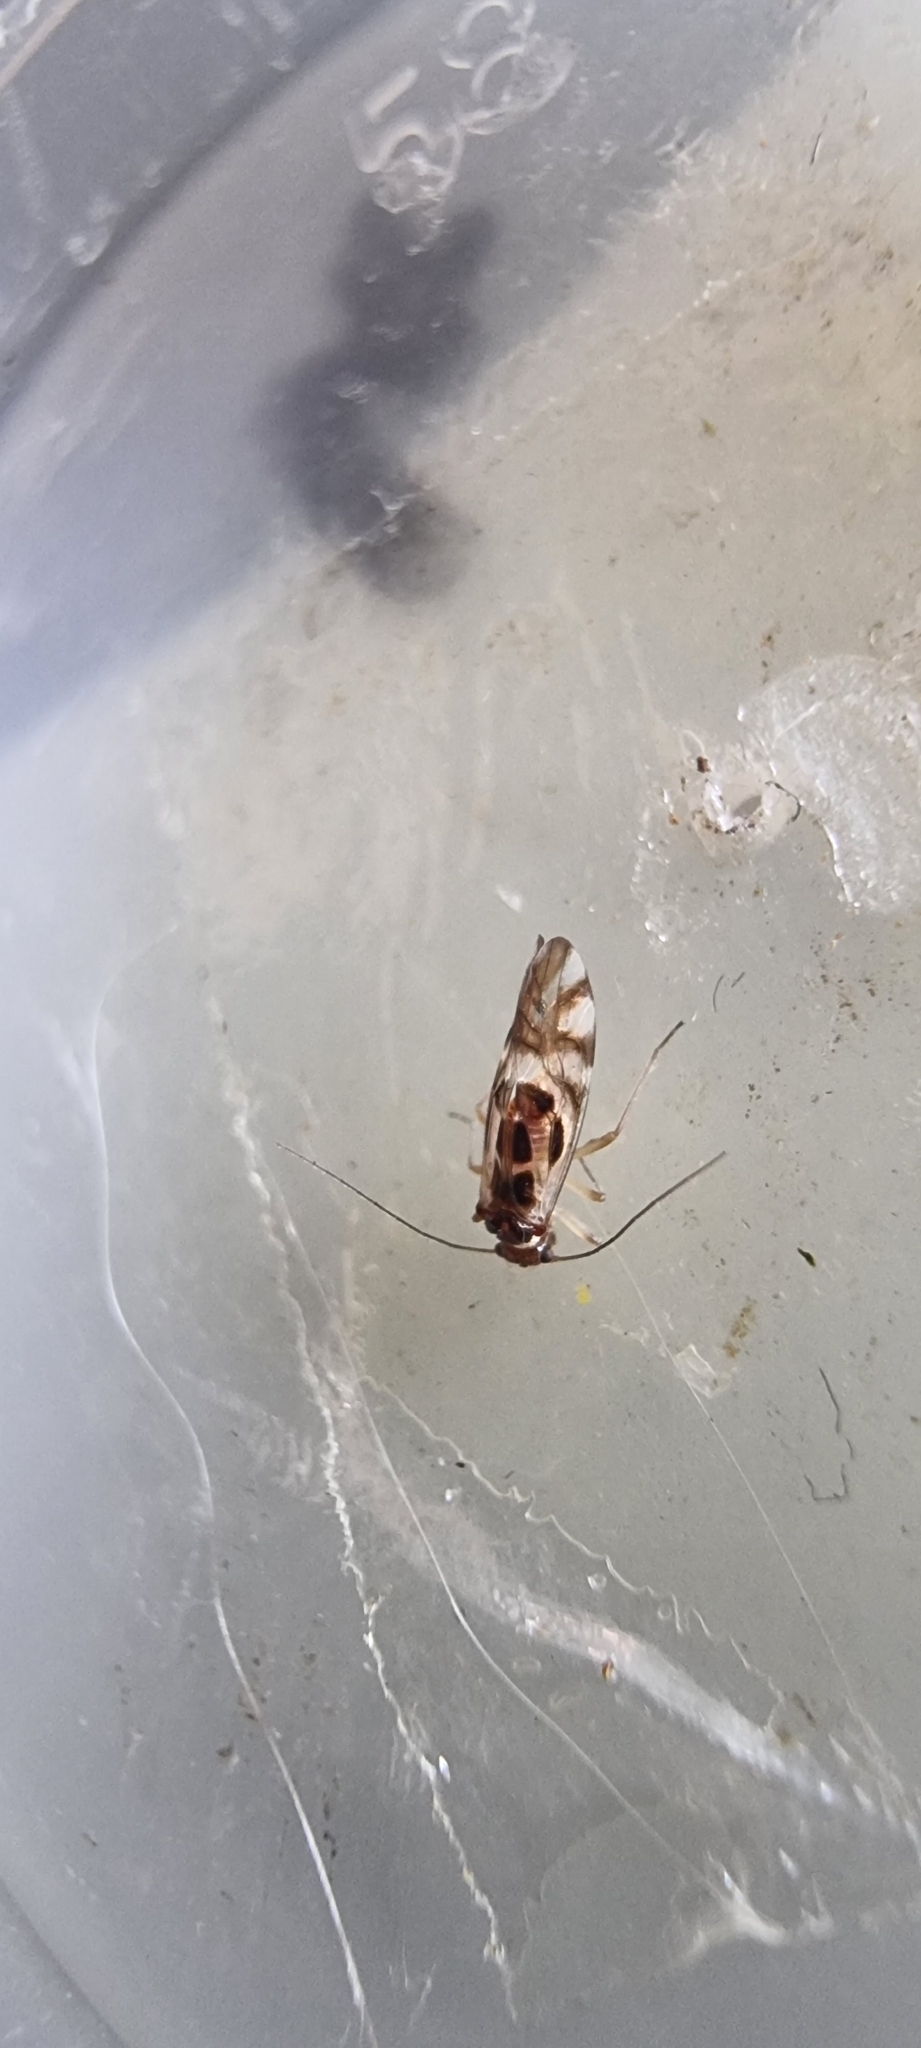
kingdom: Animalia
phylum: Arthropoda
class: Insecta
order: Psocodea
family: Stenopsocidae
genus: Graphopsocus
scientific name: Graphopsocus cruciatus
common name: Lizard bark louse
